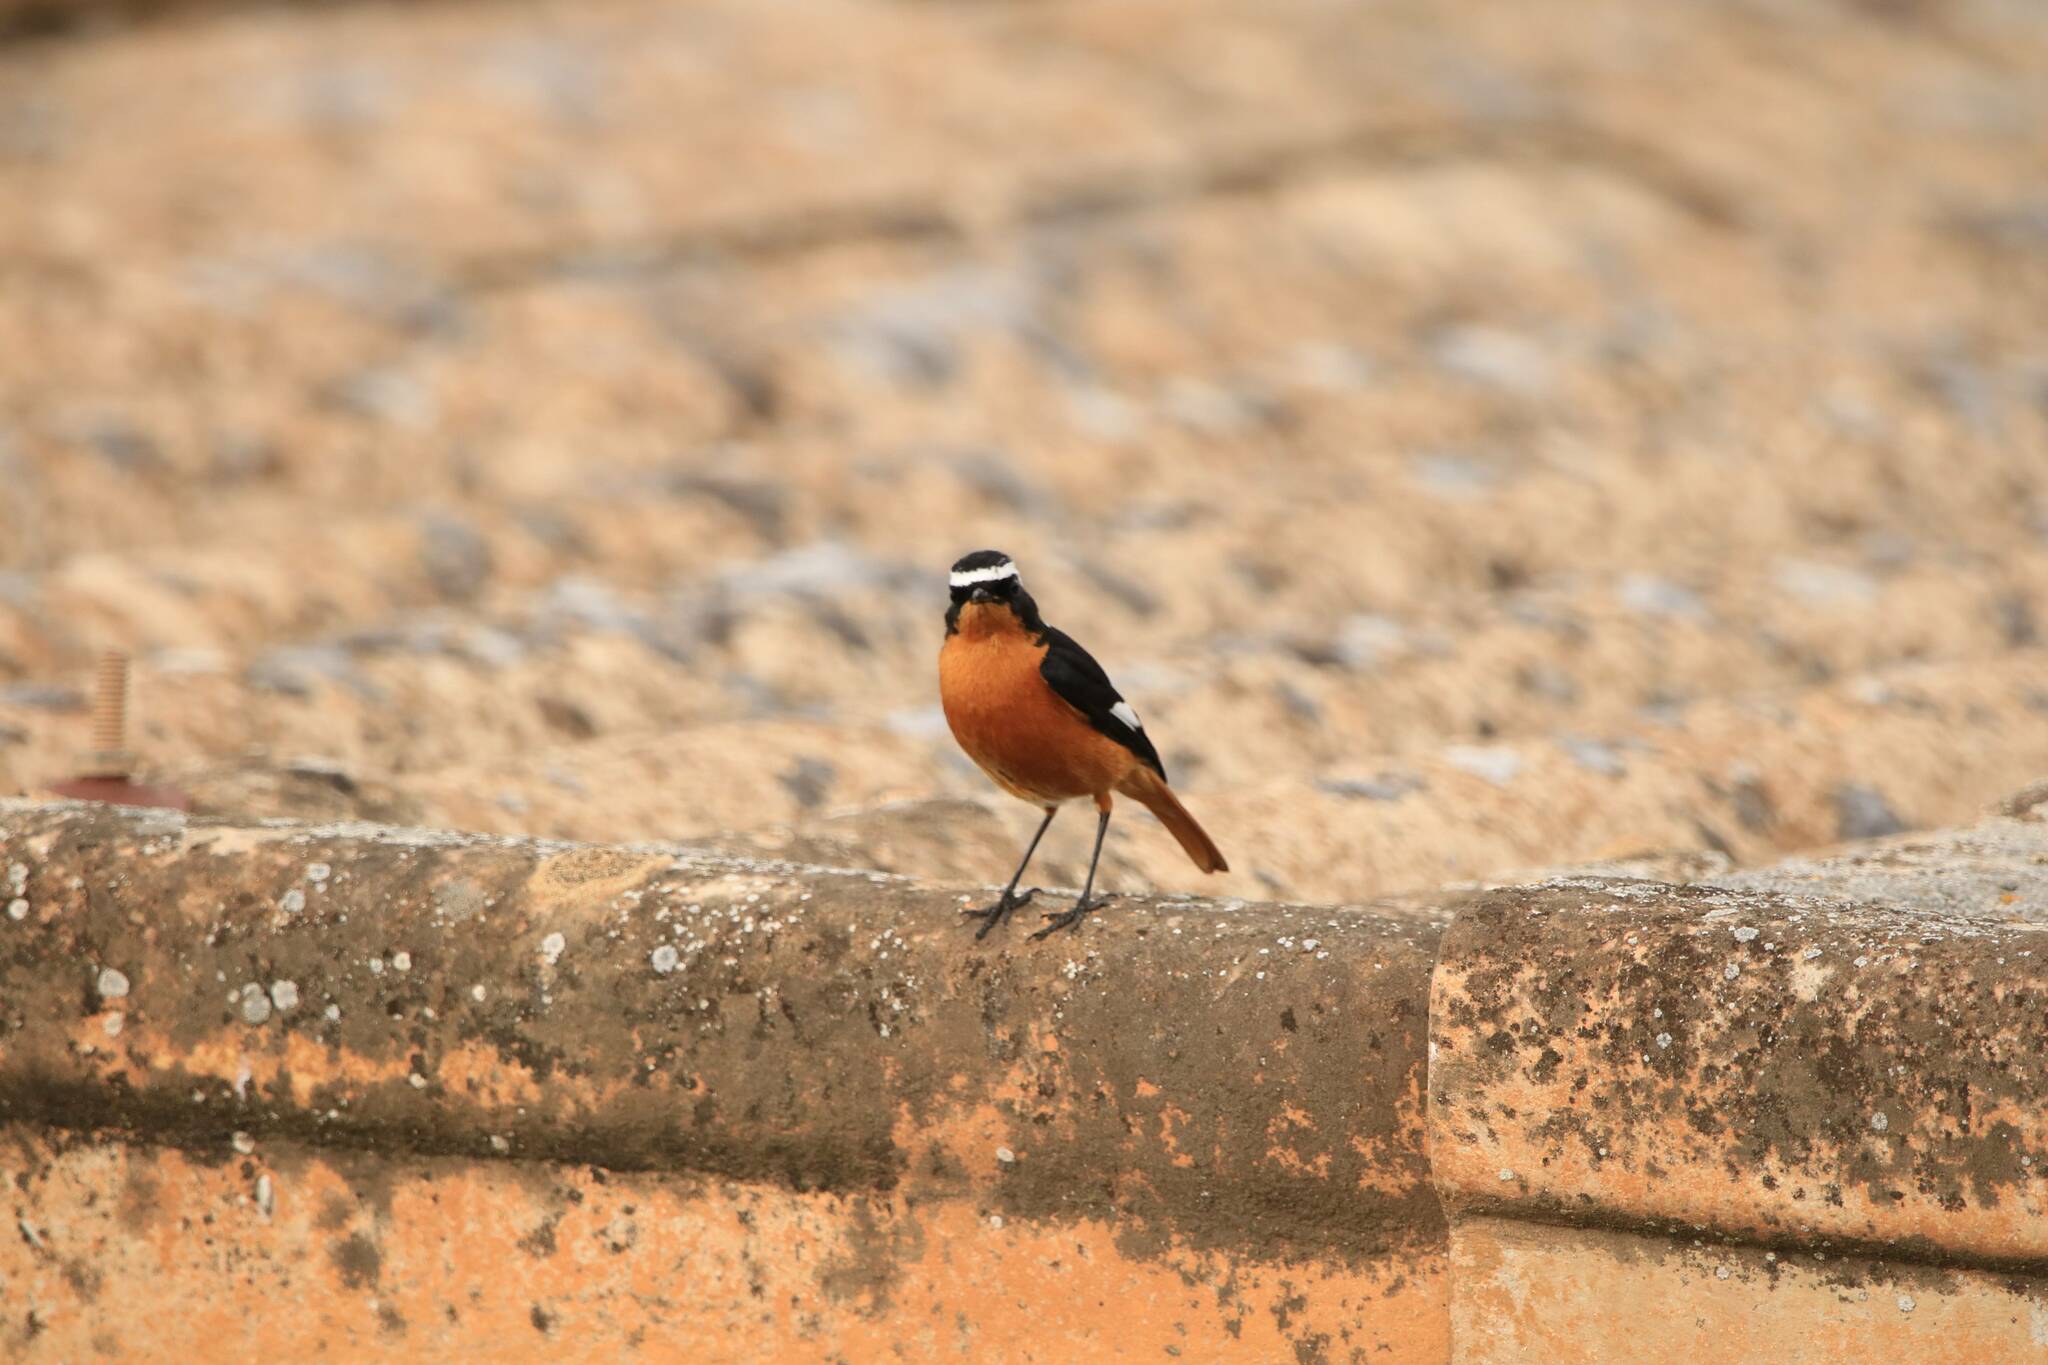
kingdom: Animalia
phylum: Chordata
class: Aves
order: Passeriformes
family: Muscicapidae
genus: Phoenicurus
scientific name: Phoenicurus moussieri
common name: Moussier's redstart
